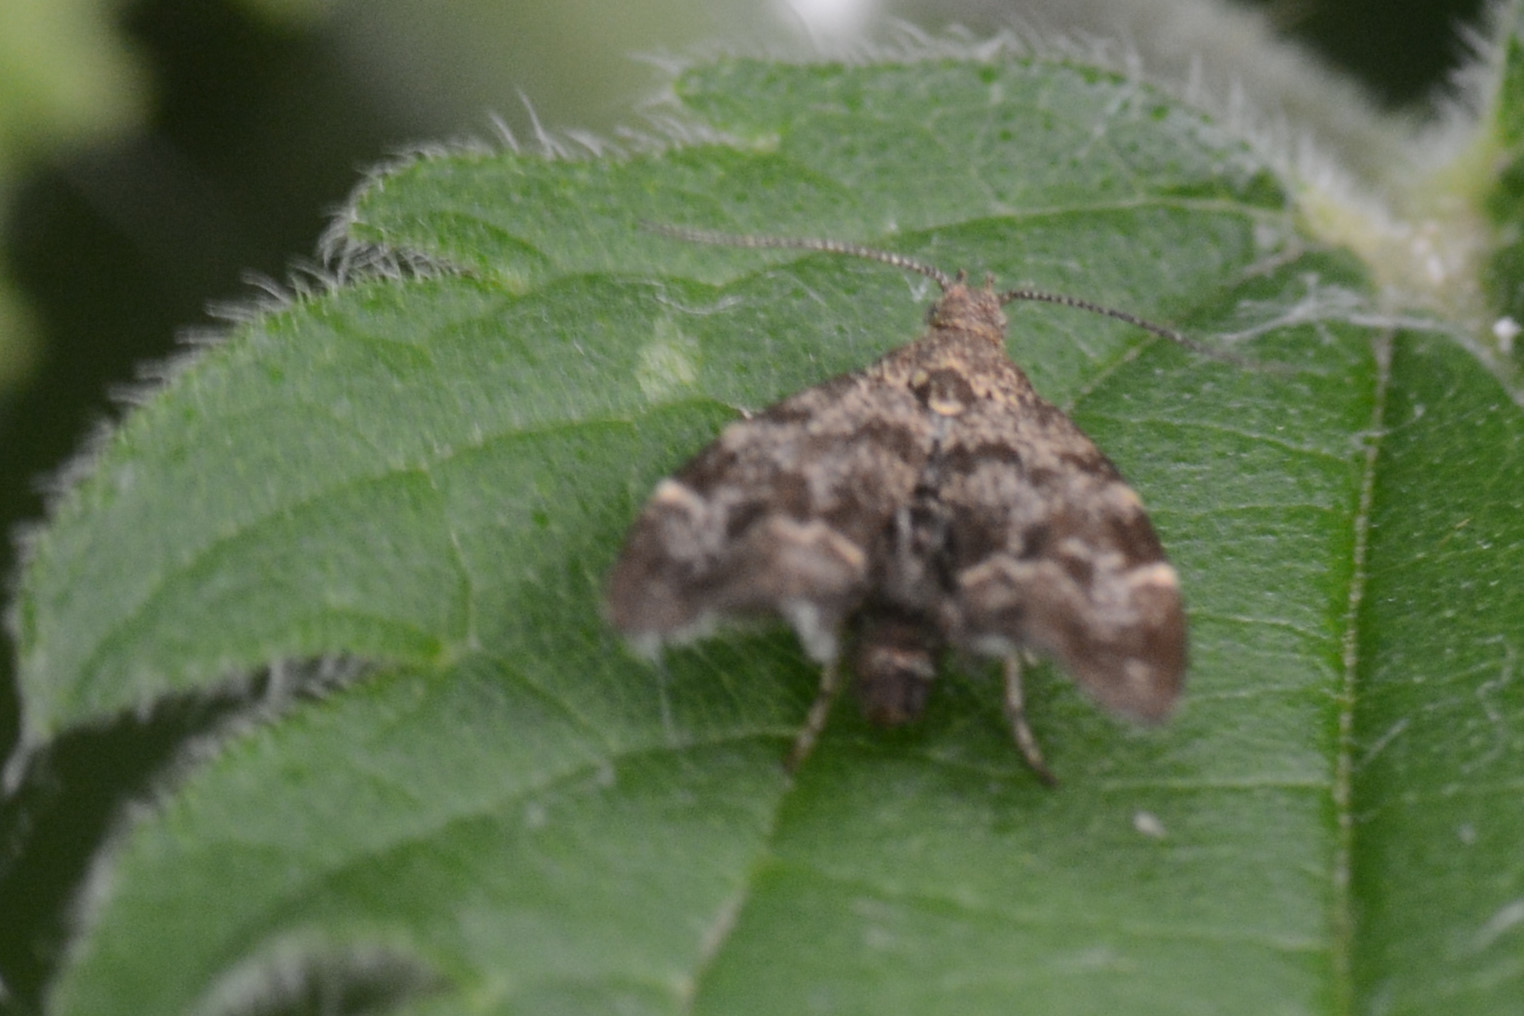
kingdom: Animalia
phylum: Arthropoda
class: Insecta
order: Lepidoptera
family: Choreutidae
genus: Anthophila
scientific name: Anthophila fabriciana
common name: Nettle-tap
